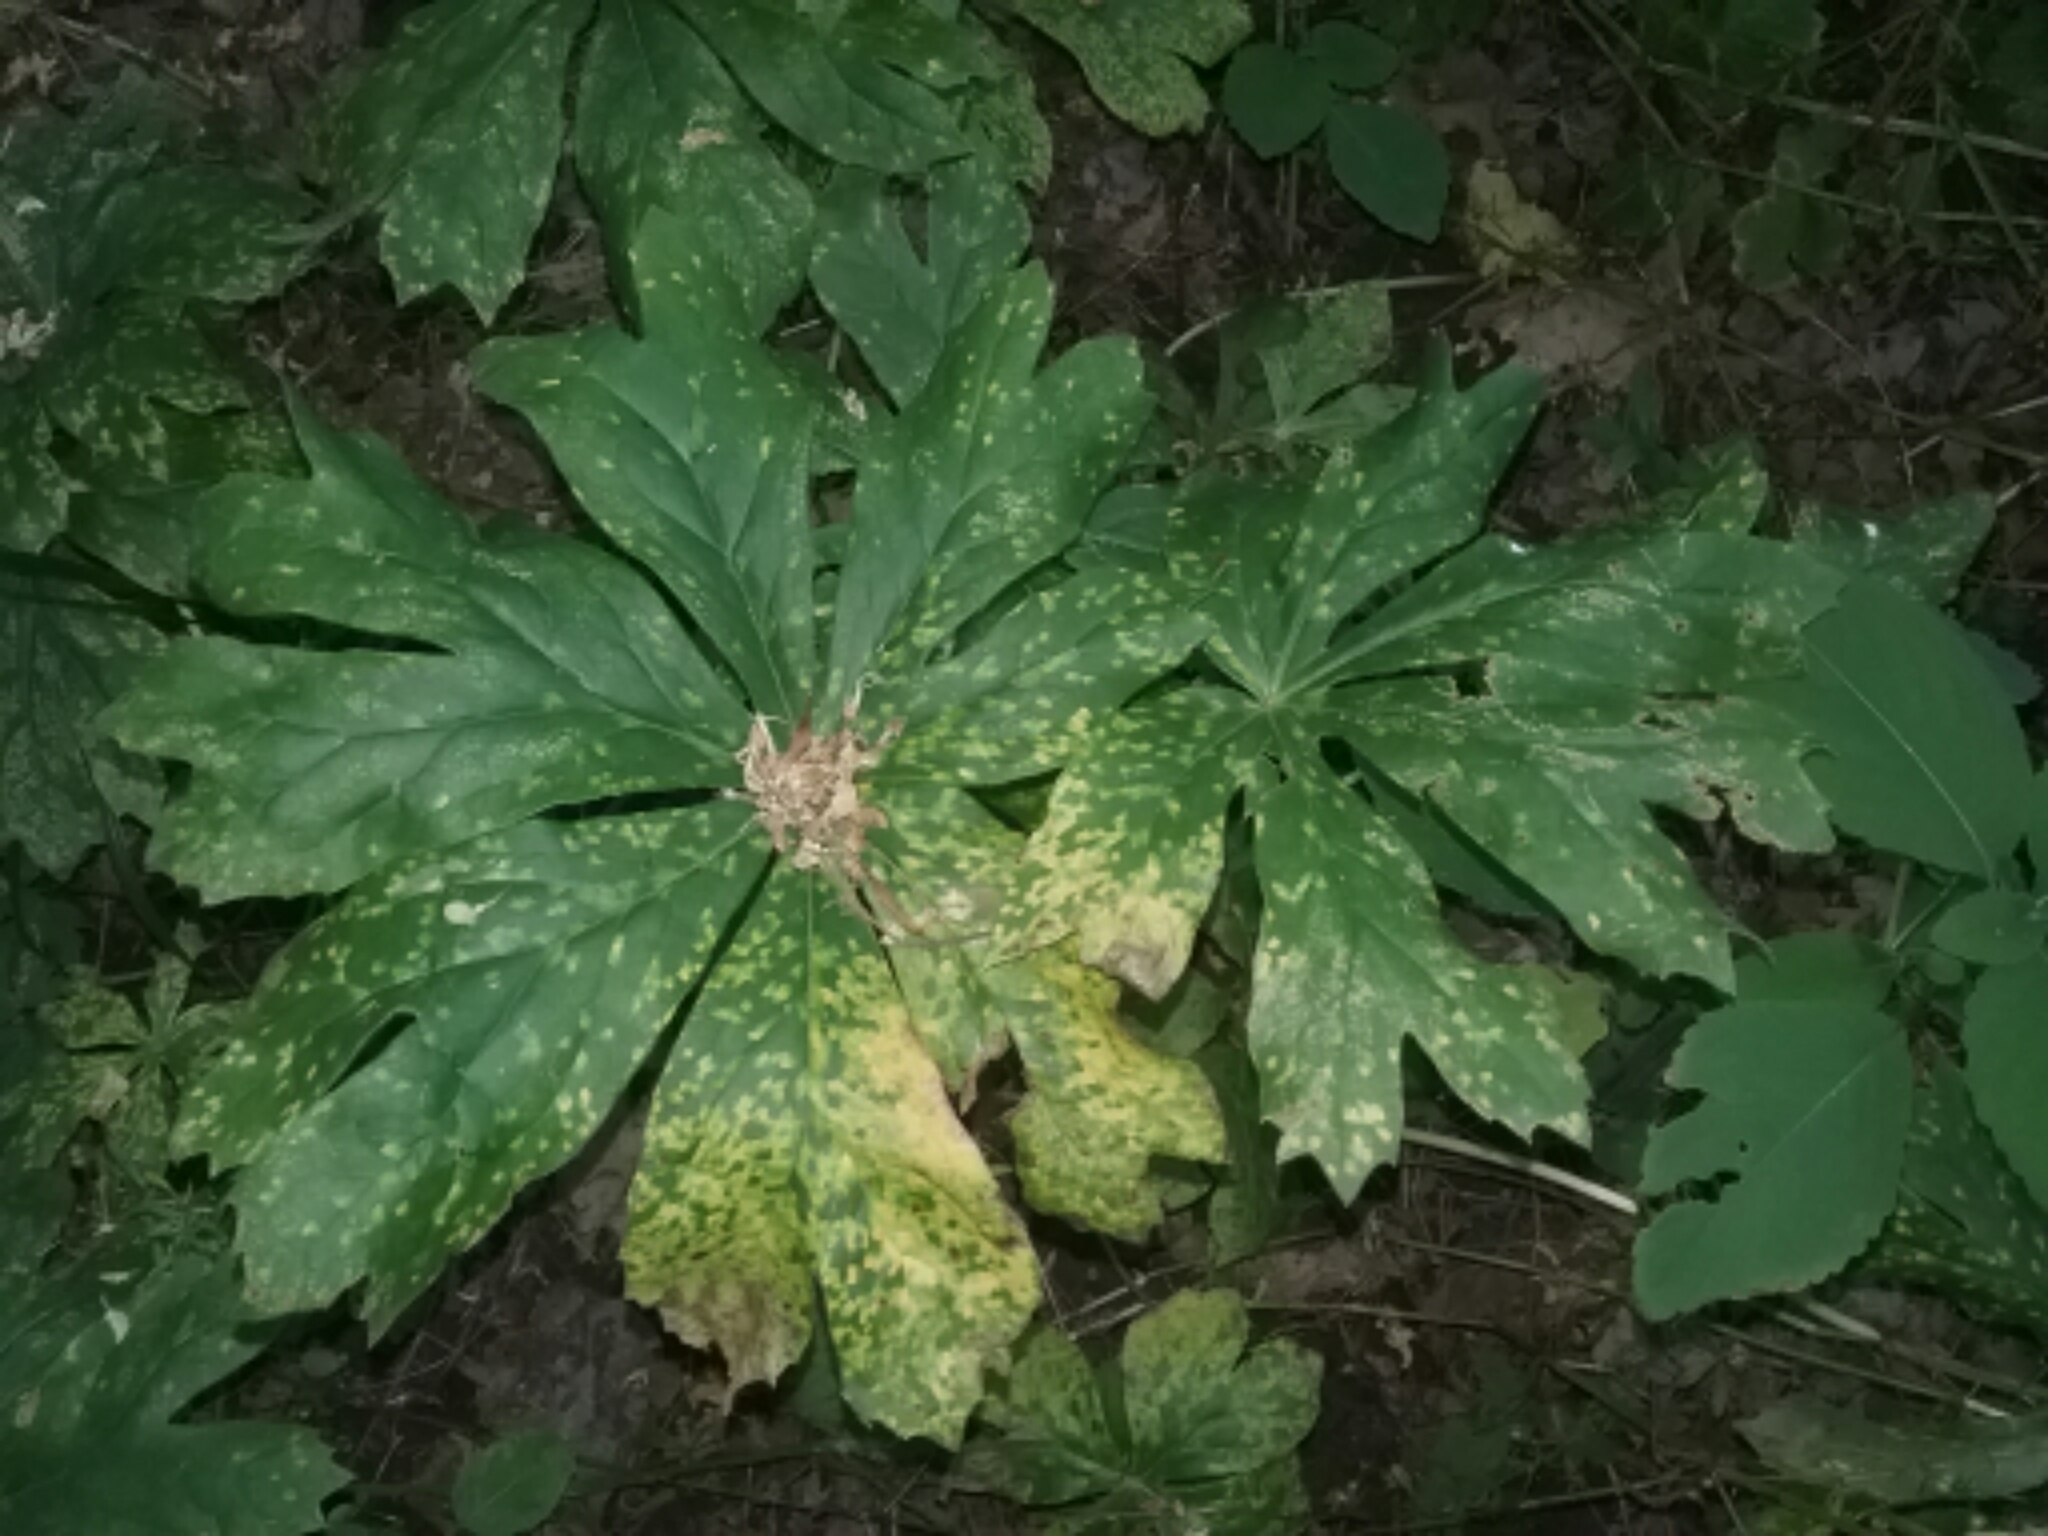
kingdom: Plantae
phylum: Tracheophyta
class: Magnoliopsida
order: Ranunculales
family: Berberidaceae
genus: Podophyllum
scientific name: Podophyllum peltatum
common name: Wild mandrake
